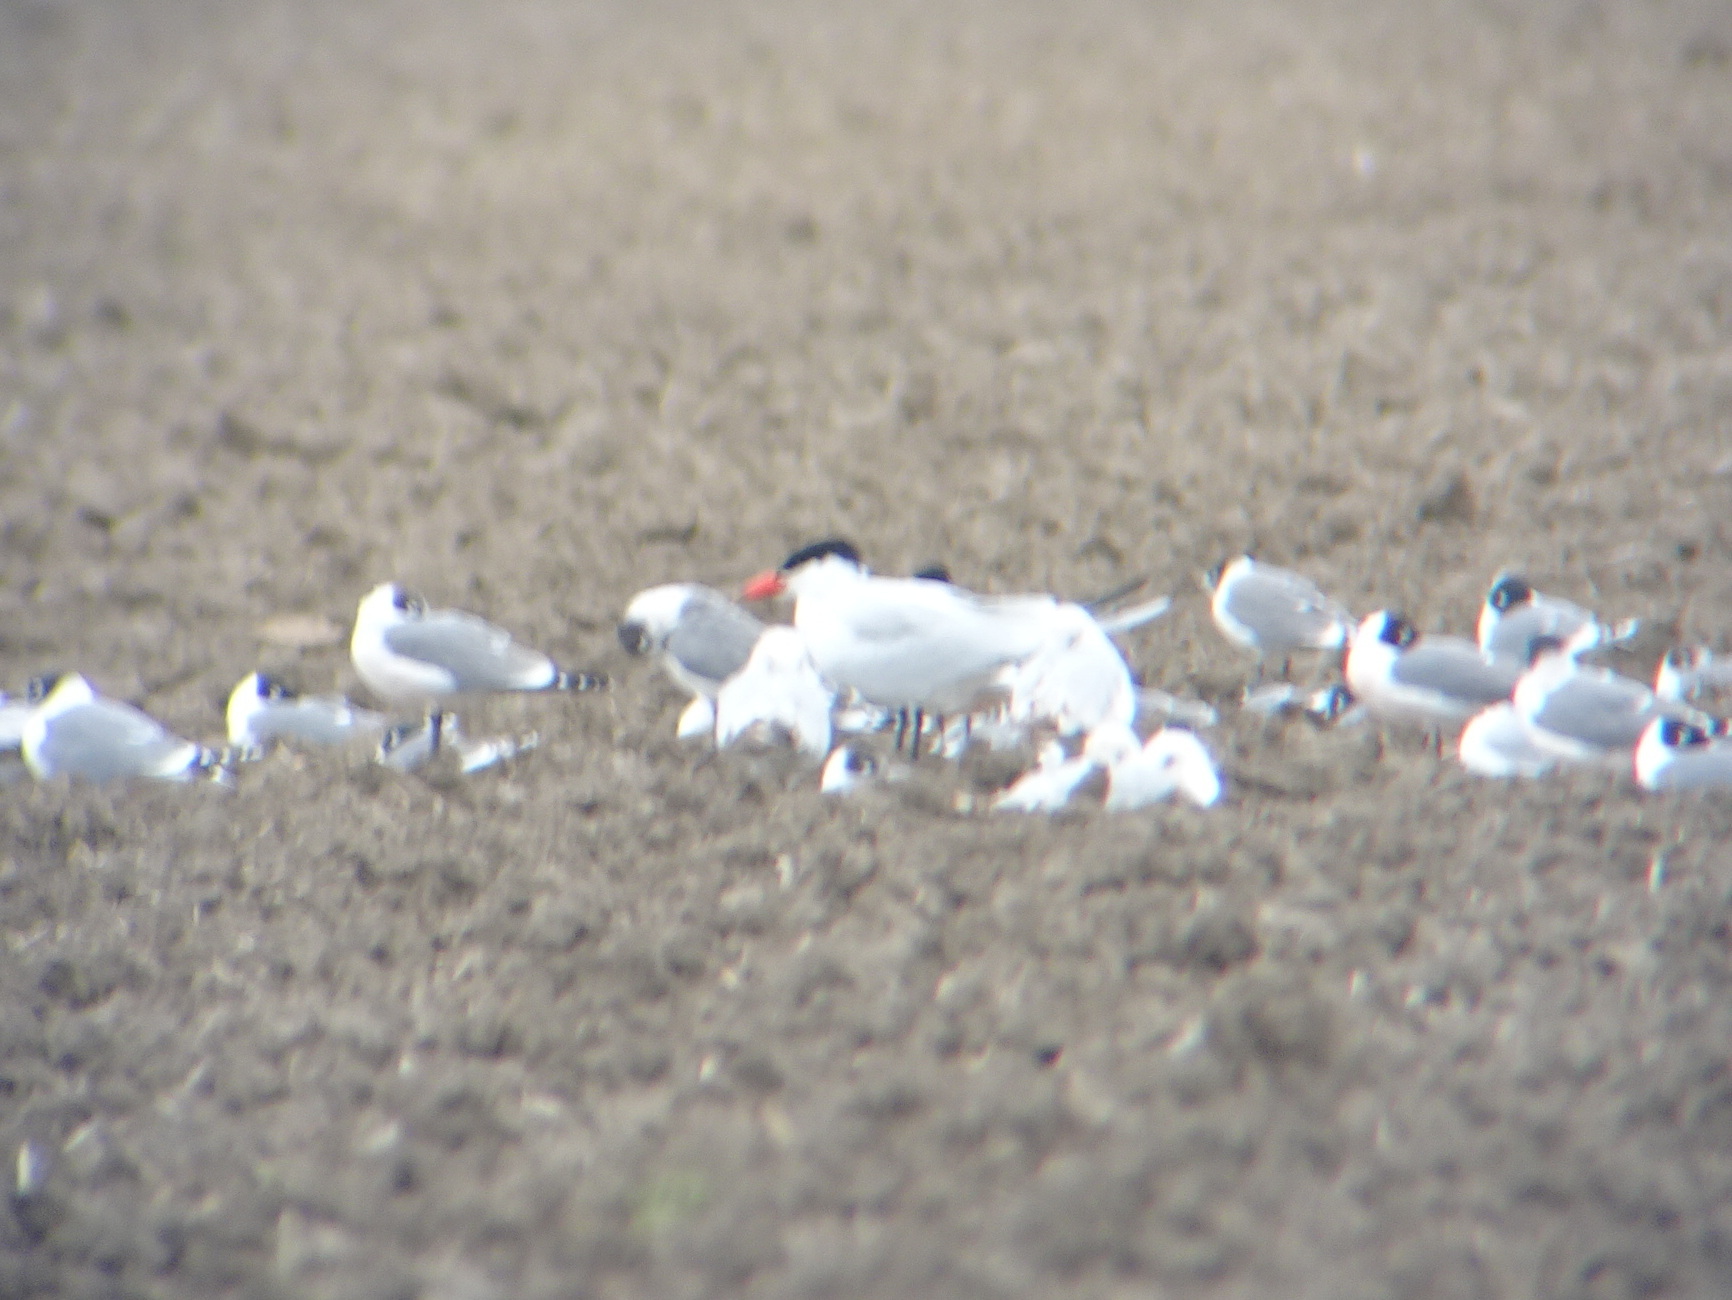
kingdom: Animalia
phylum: Chordata
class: Aves
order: Charadriiformes
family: Laridae
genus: Hydroprogne
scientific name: Hydroprogne caspia
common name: Caspian tern
